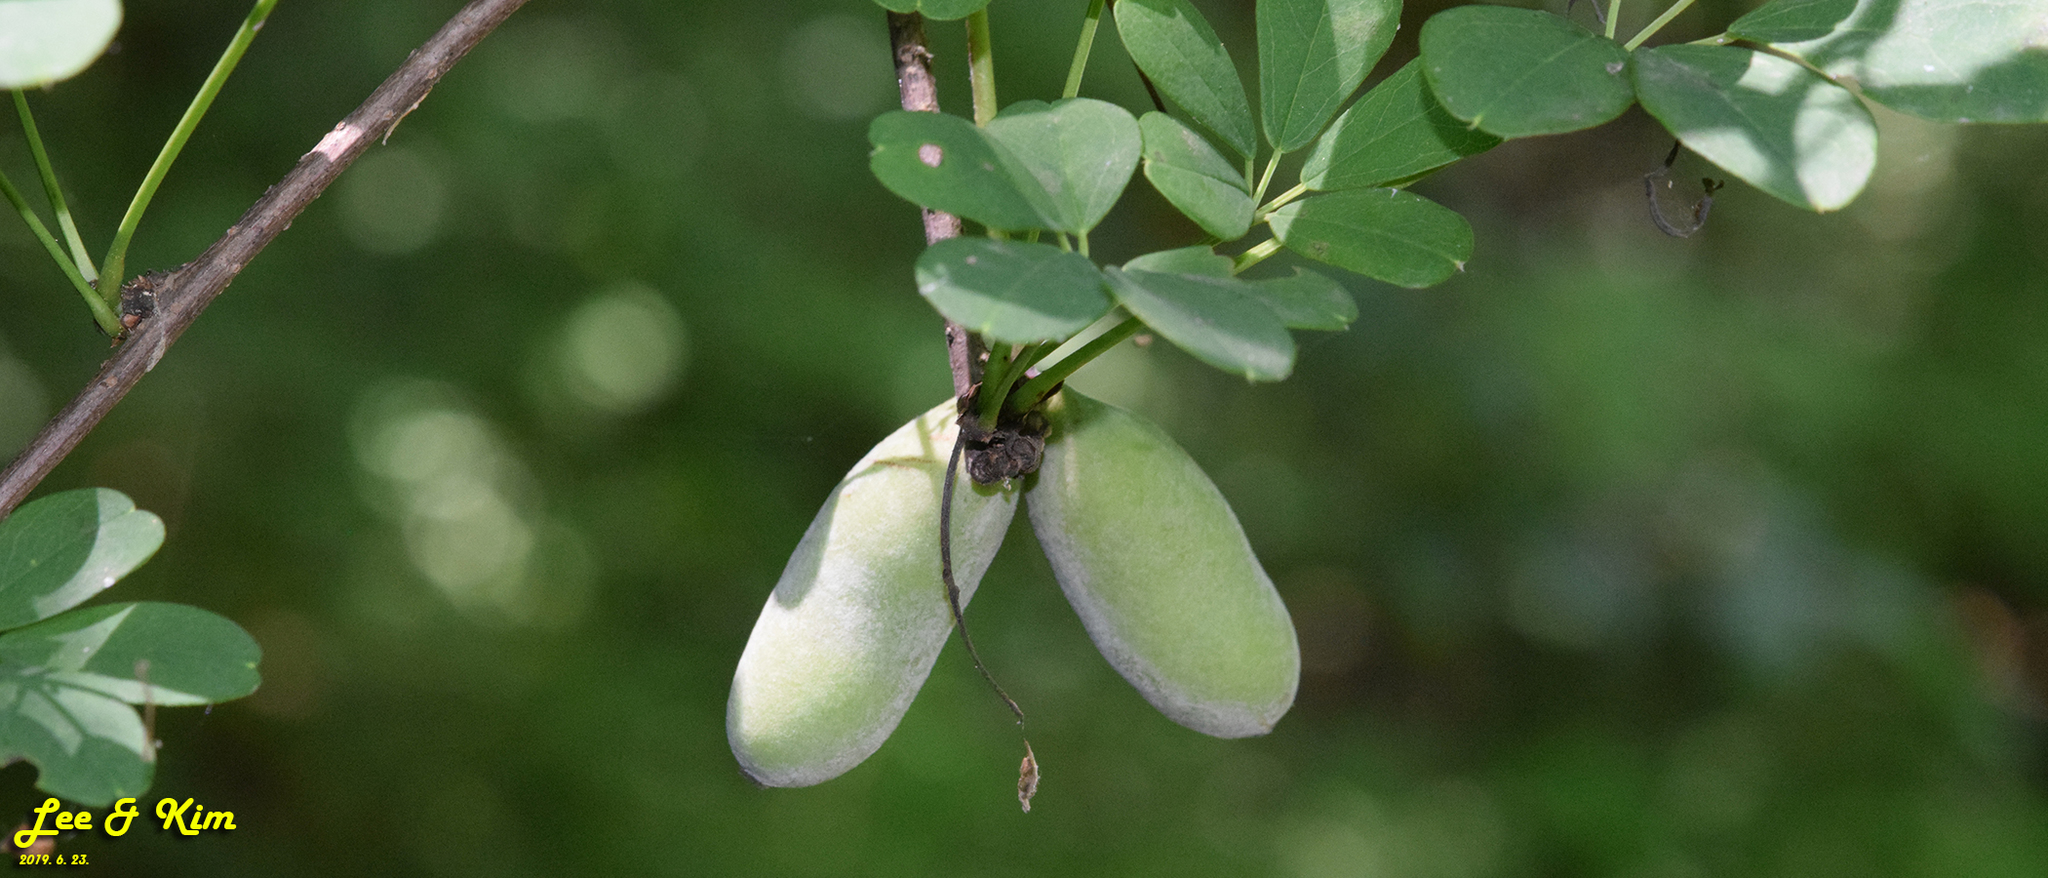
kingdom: Plantae
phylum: Tracheophyta
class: Magnoliopsida
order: Ranunculales
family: Lardizabalaceae
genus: Akebia
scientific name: Akebia quinata
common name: Five-leaf akebia
